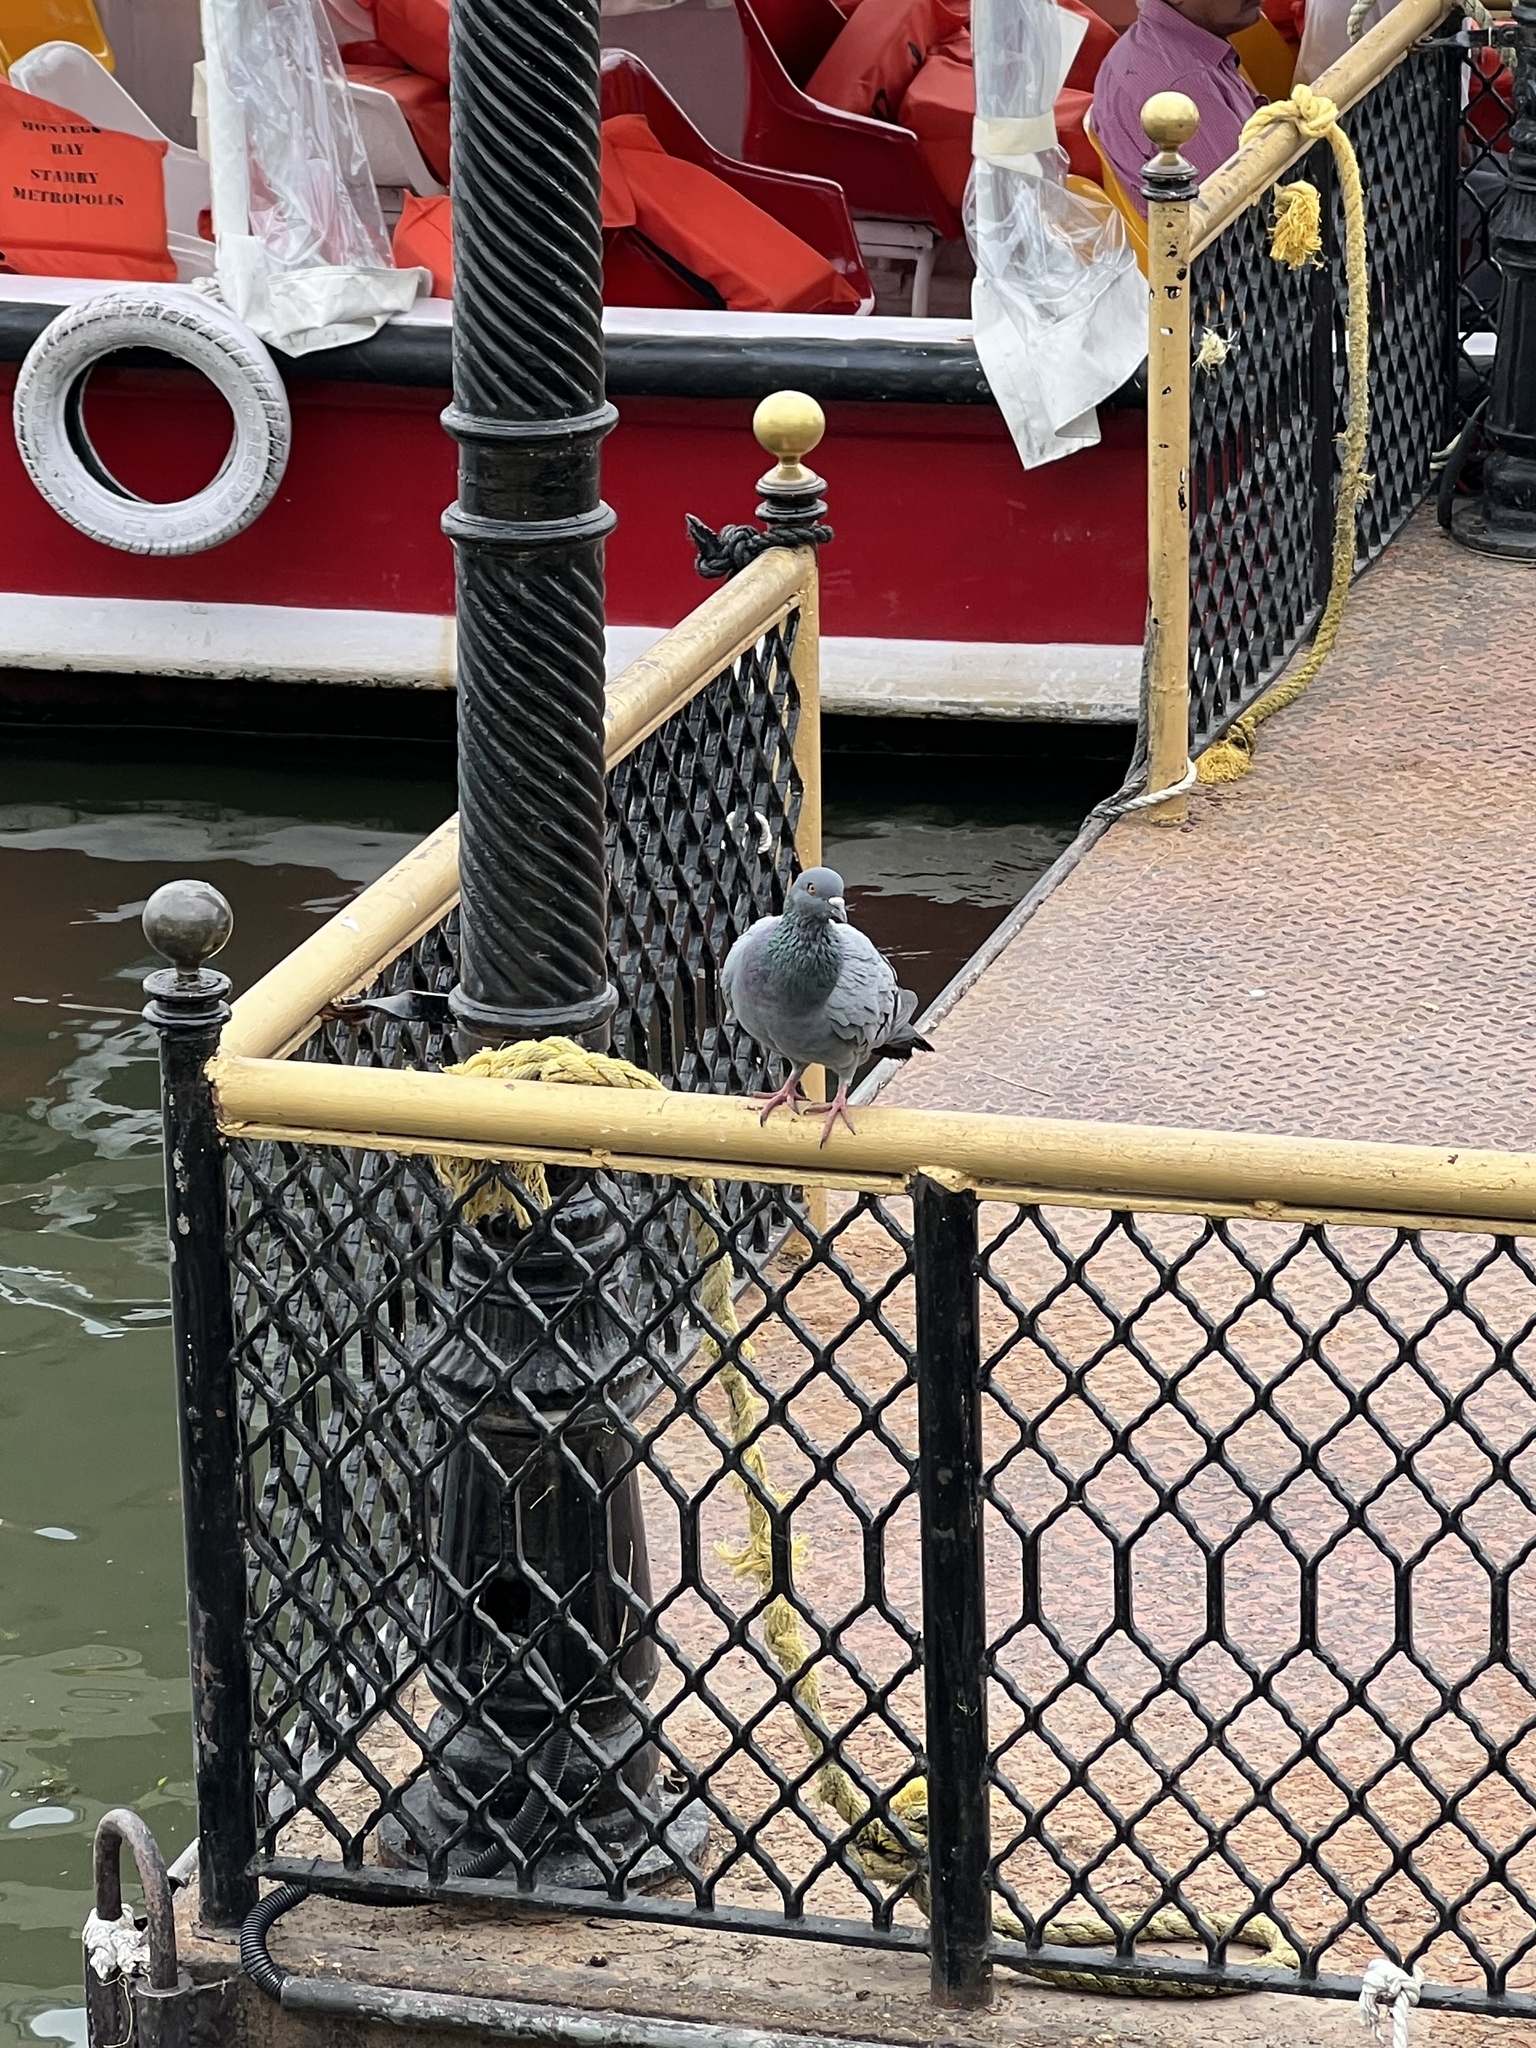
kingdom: Animalia
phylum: Chordata
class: Aves
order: Columbiformes
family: Columbidae
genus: Columba
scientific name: Columba livia
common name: Rock pigeon
